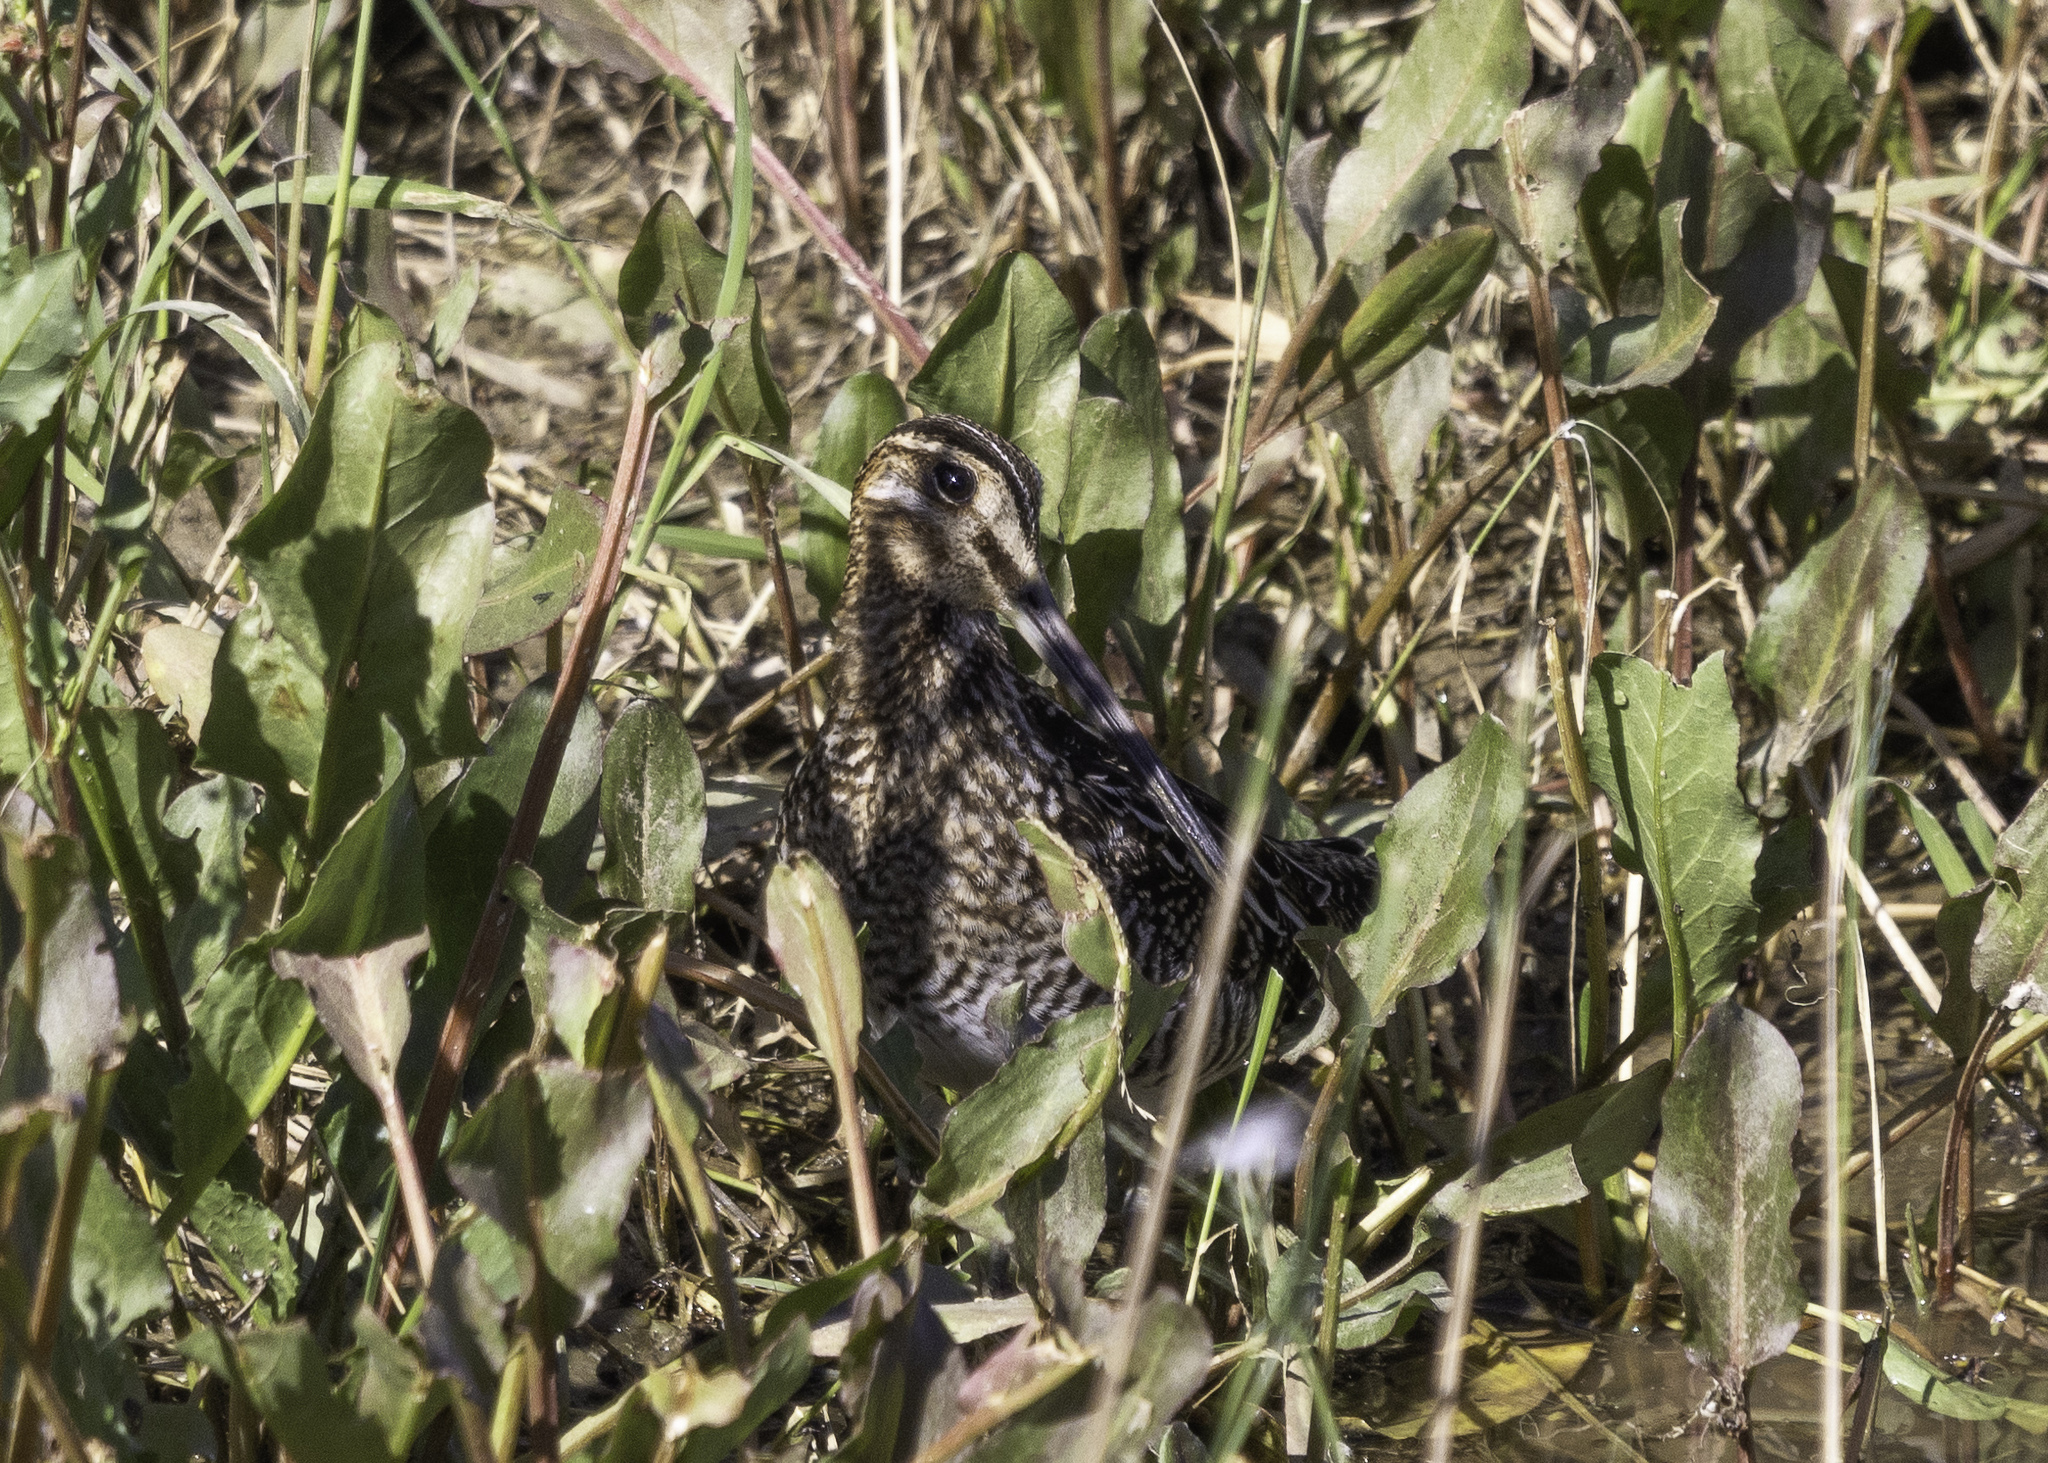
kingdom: Animalia
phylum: Chordata
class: Aves
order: Charadriiformes
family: Scolopacidae
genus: Gallinago
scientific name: Gallinago delicata
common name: Wilson's snipe
